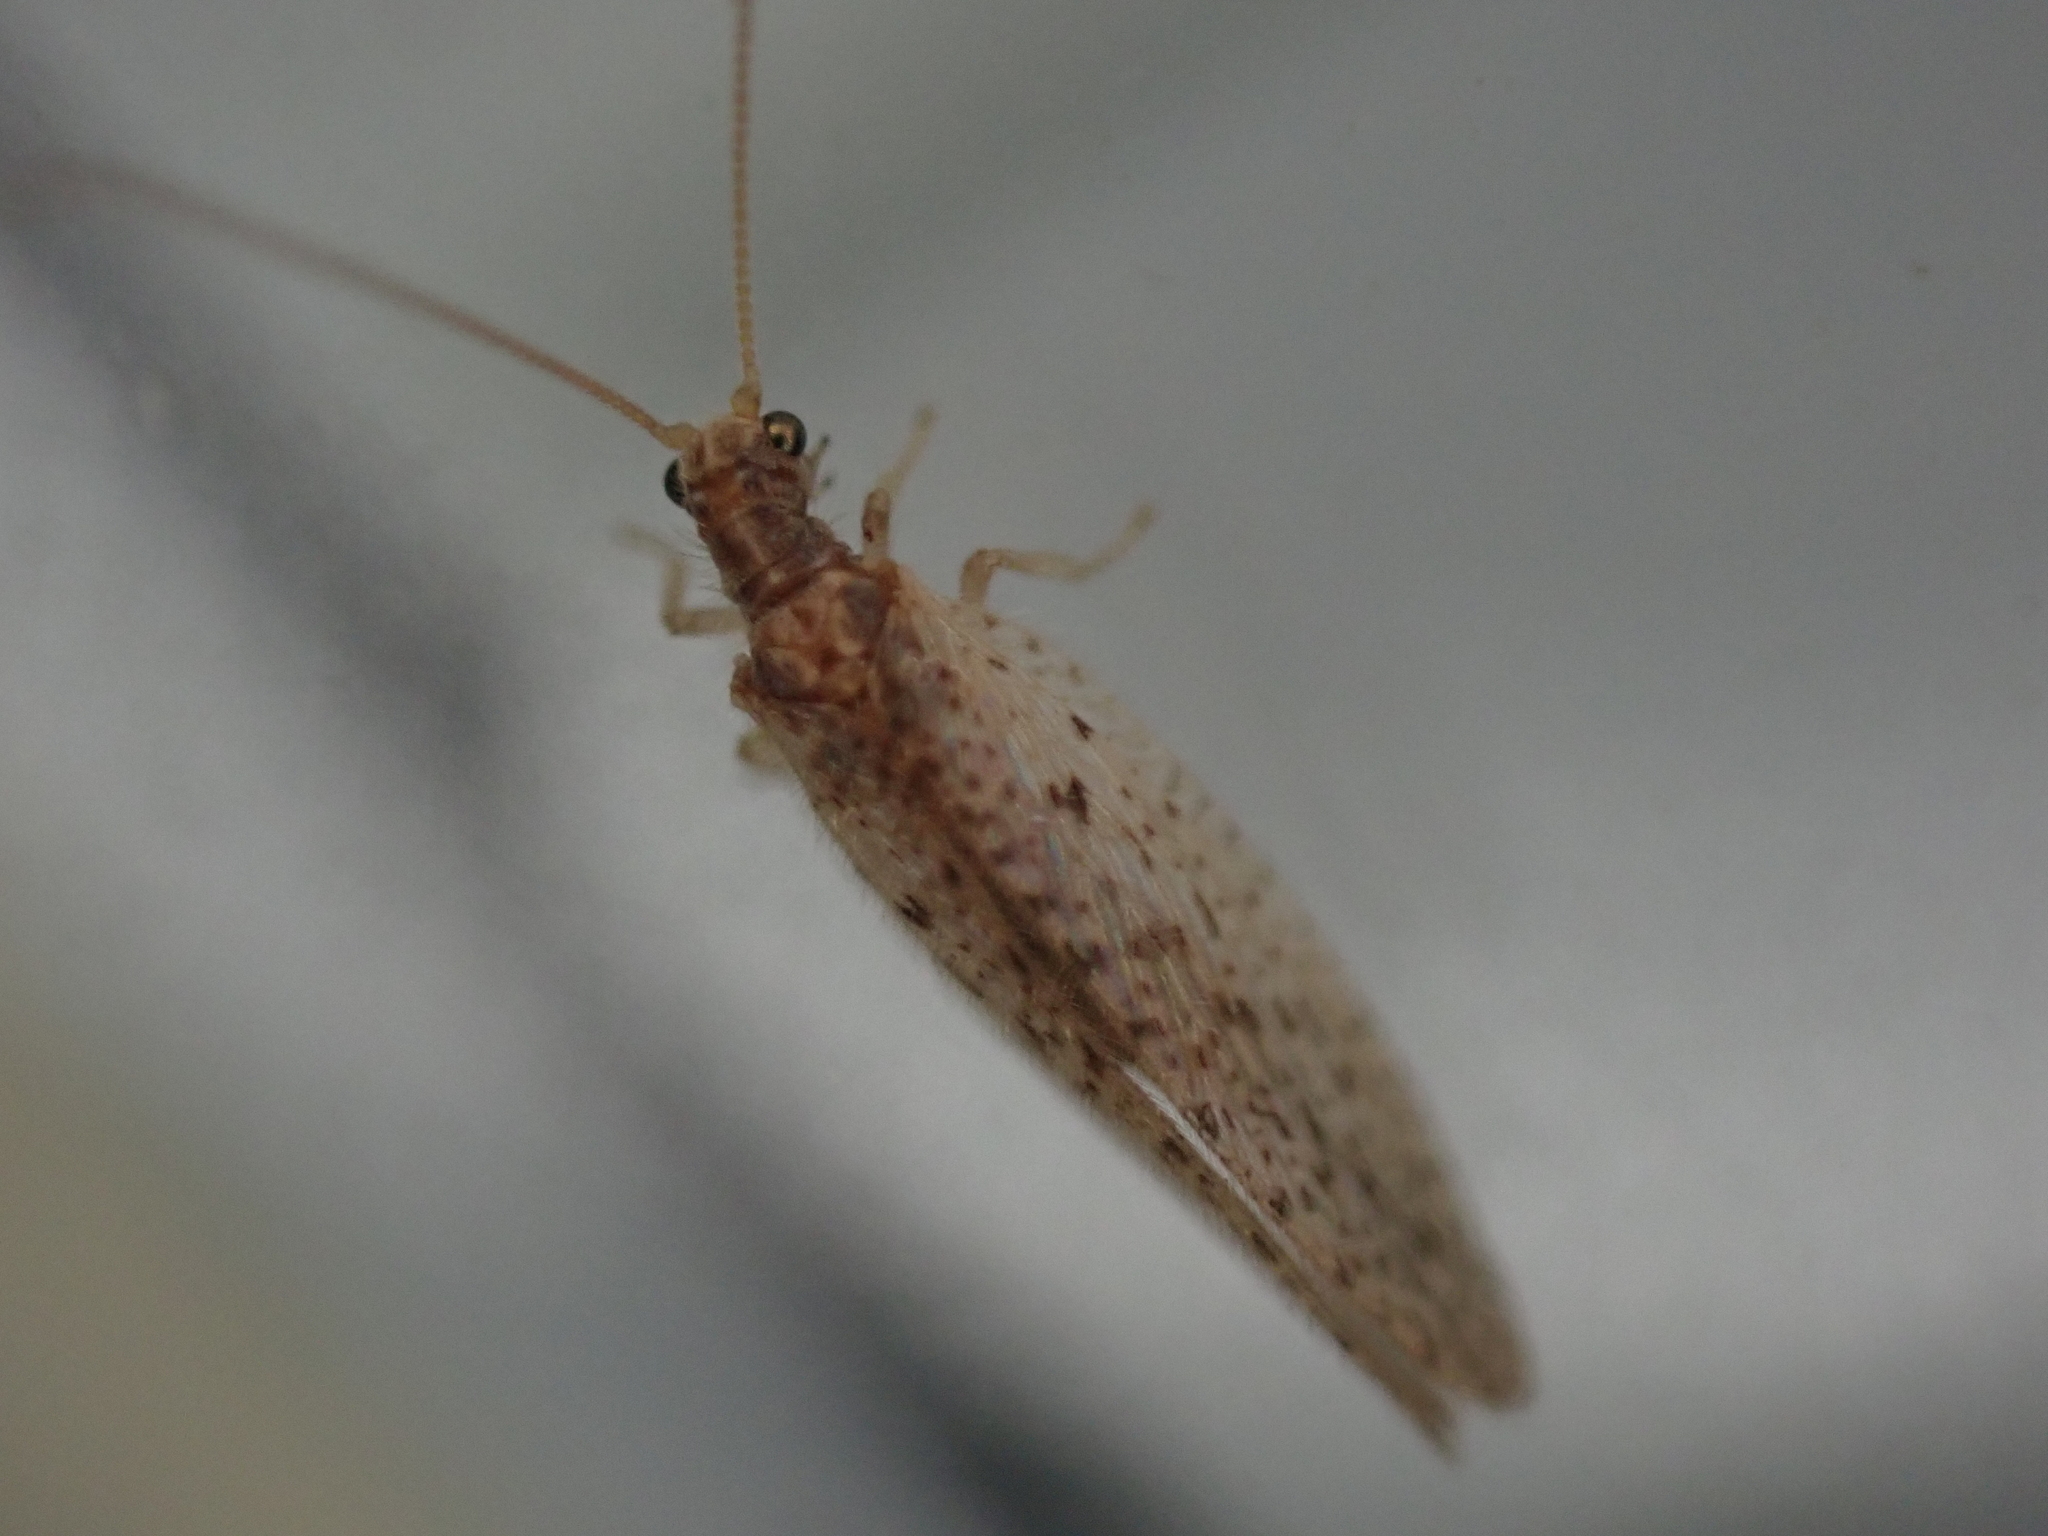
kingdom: Animalia
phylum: Arthropoda
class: Insecta
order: Neuroptera
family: Hemerobiidae
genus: Micromus
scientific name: Micromus subanticus
